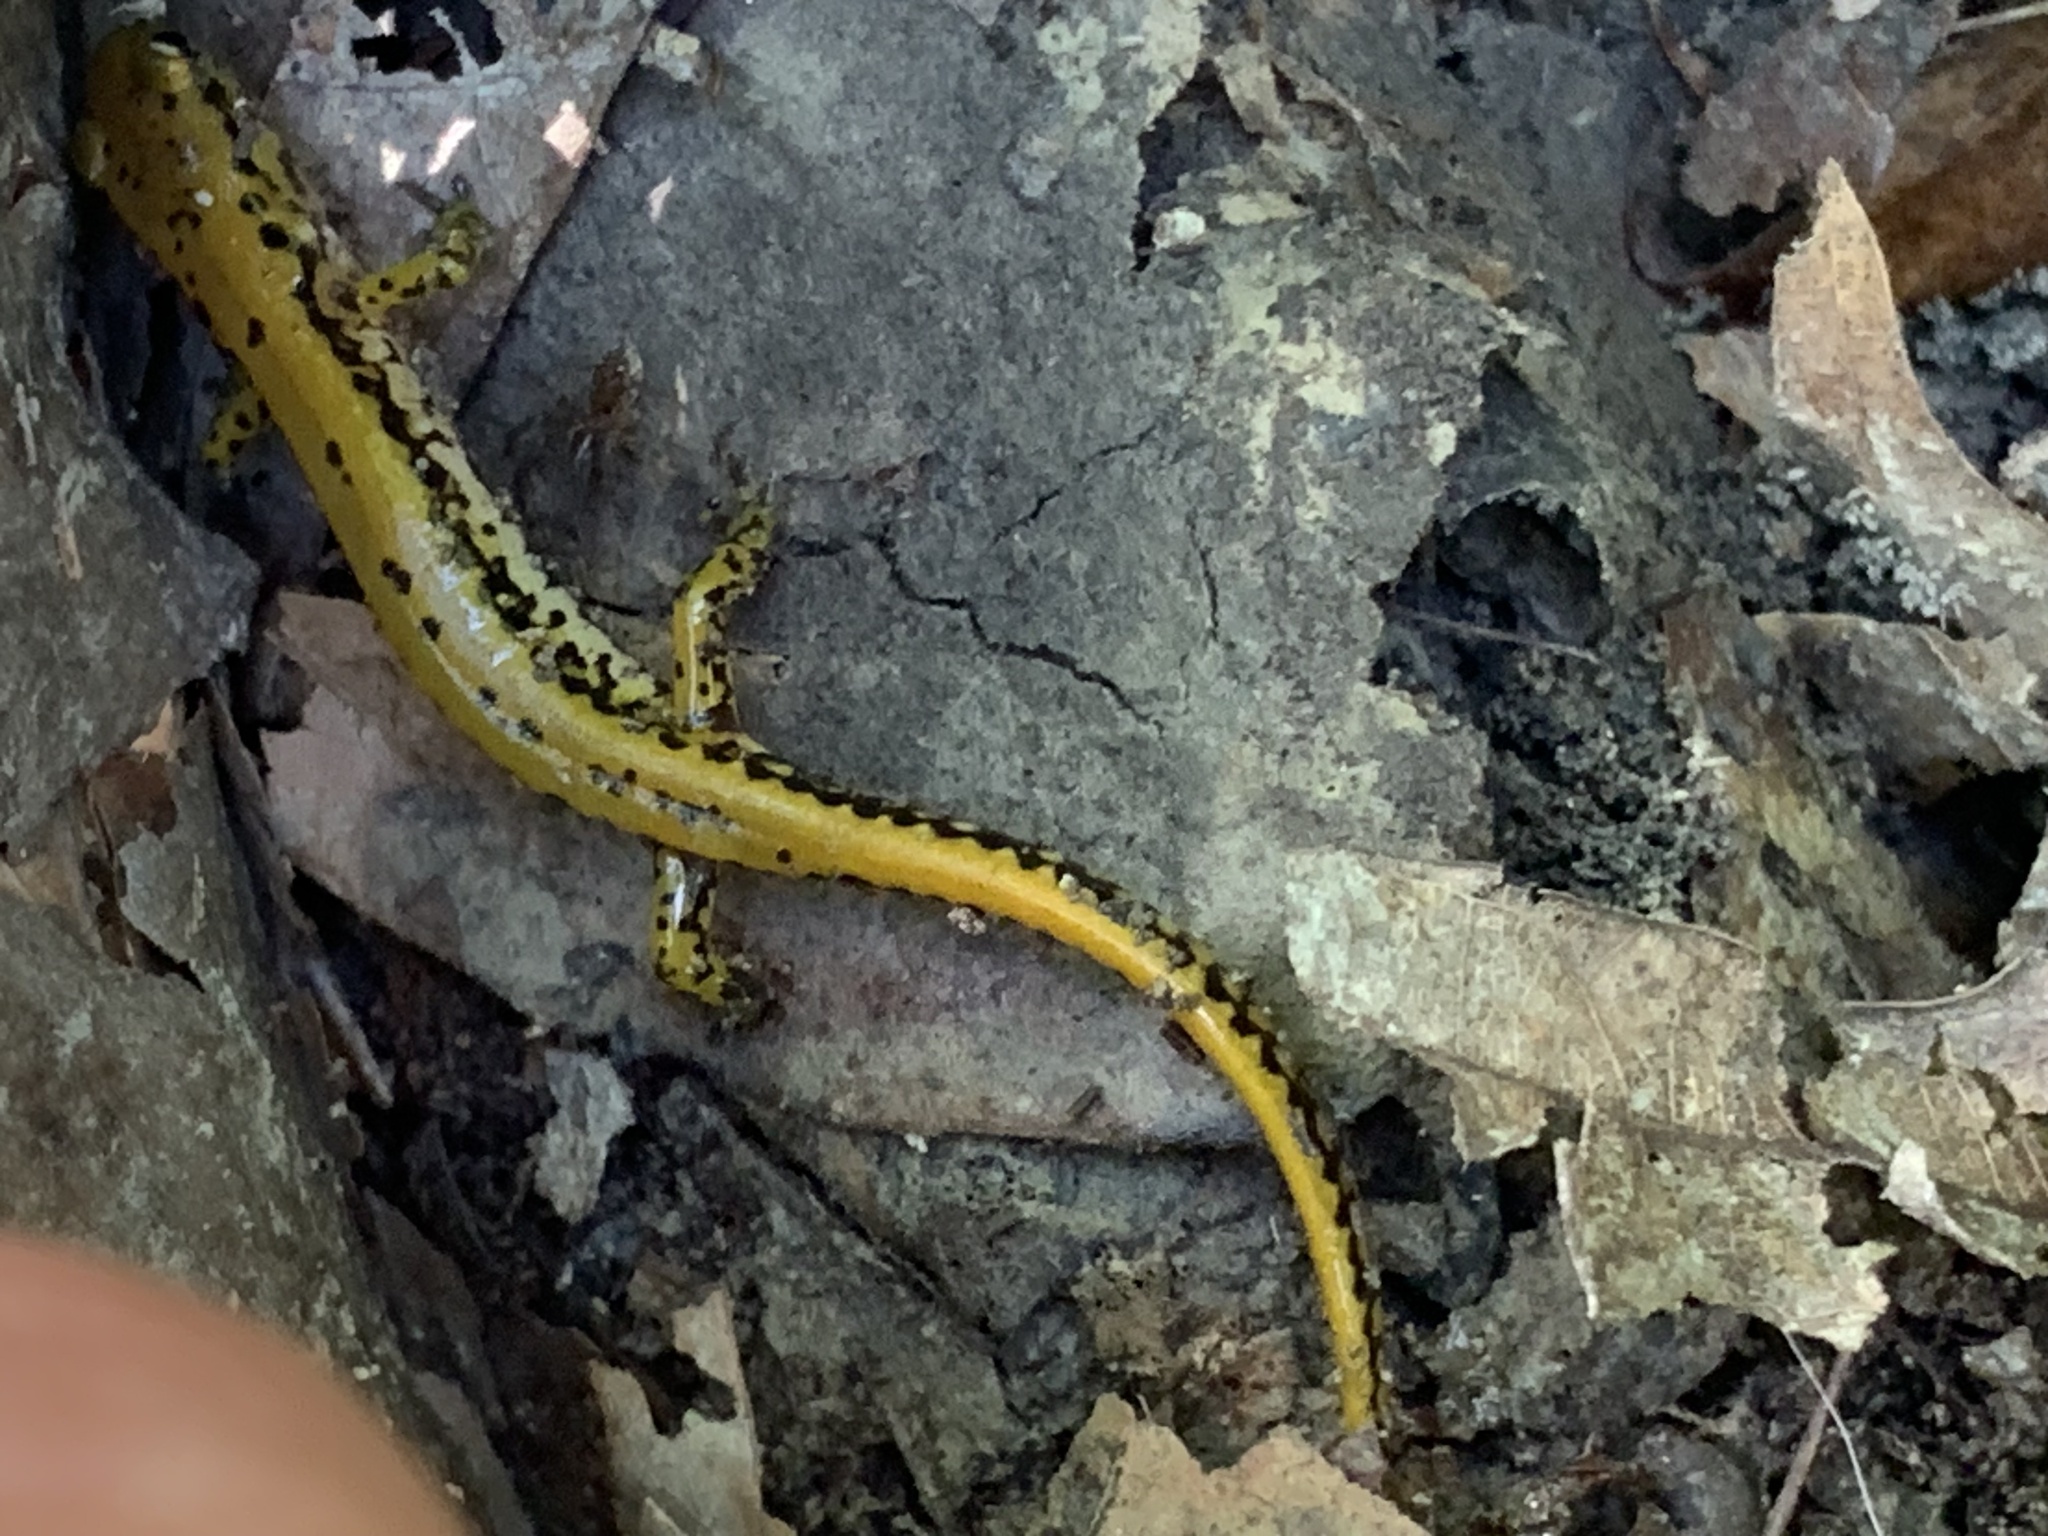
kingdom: Animalia
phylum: Chordata
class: Amphibia
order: Caudata
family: Plethodontidae
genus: Eurycea
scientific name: Eurycea longicauda
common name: Long-tailed salamander
